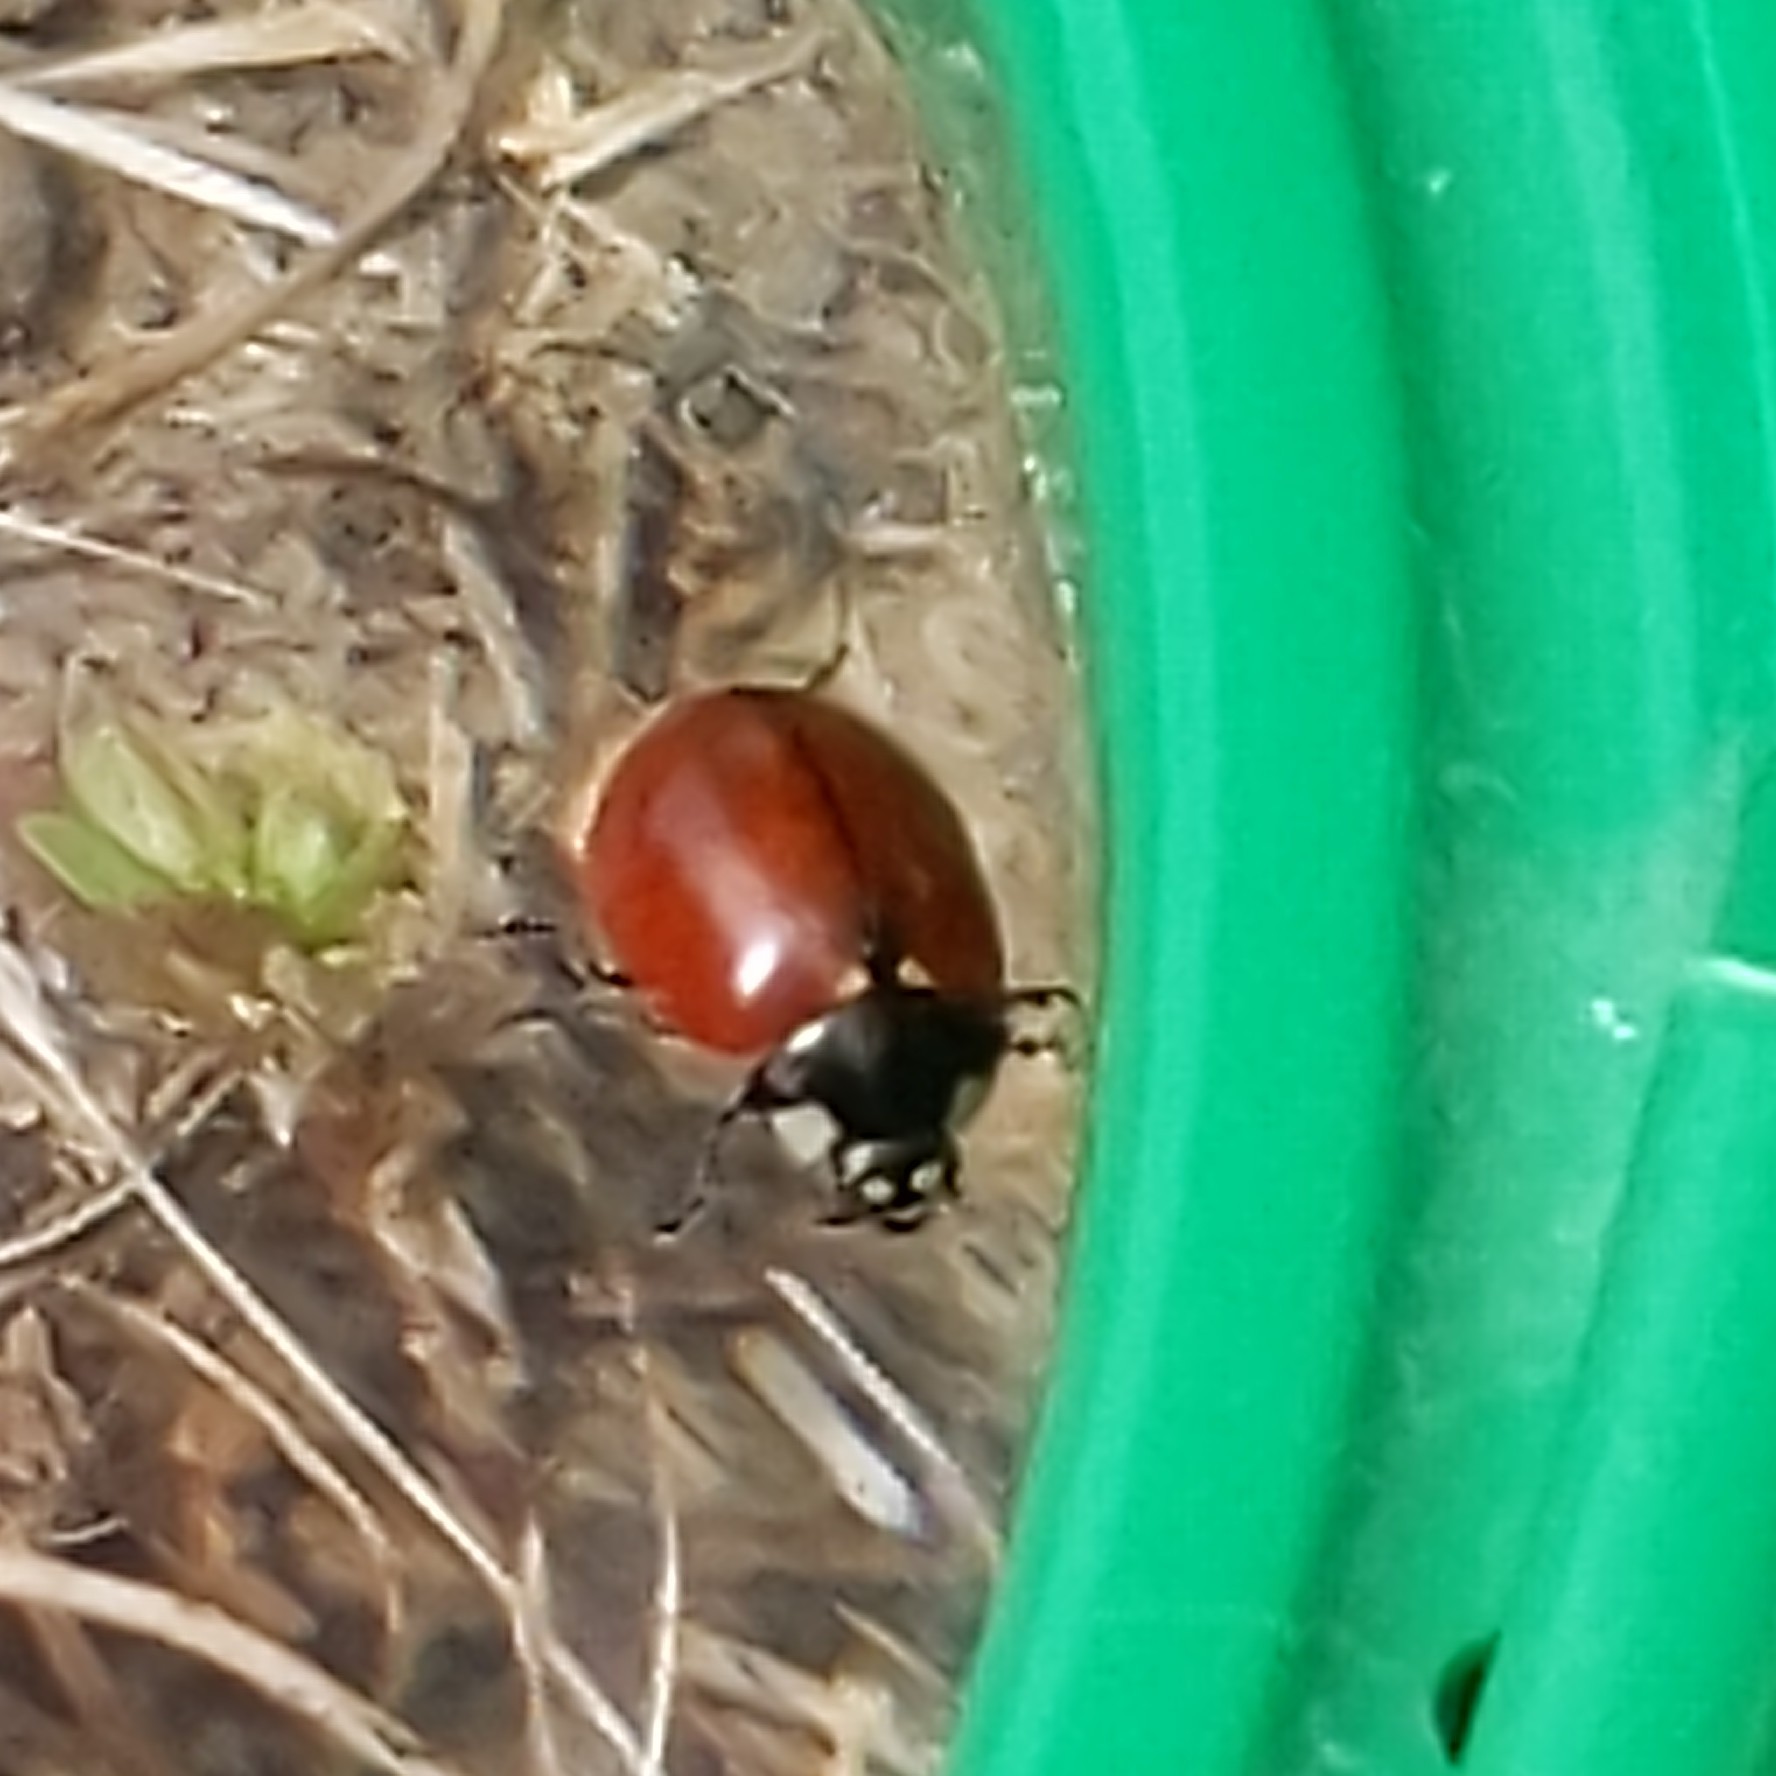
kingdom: Animalia
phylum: Arthropoda
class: Insecta
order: Coleoptera
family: Coccinellidae
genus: Coccinella
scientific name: Coccinella californica
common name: Lady beetle
